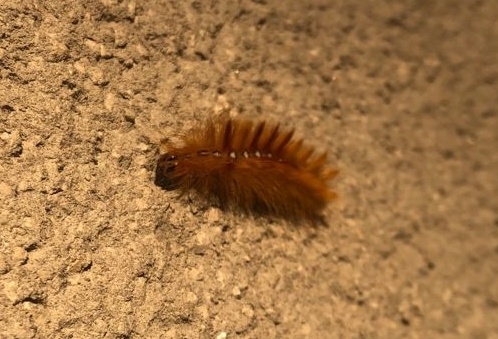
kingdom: Animalia
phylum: Arthropoda
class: Insecta
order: Lepidoptera
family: Noctuidae
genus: Acronicta
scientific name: Acronicta aceris
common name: Sycamore
